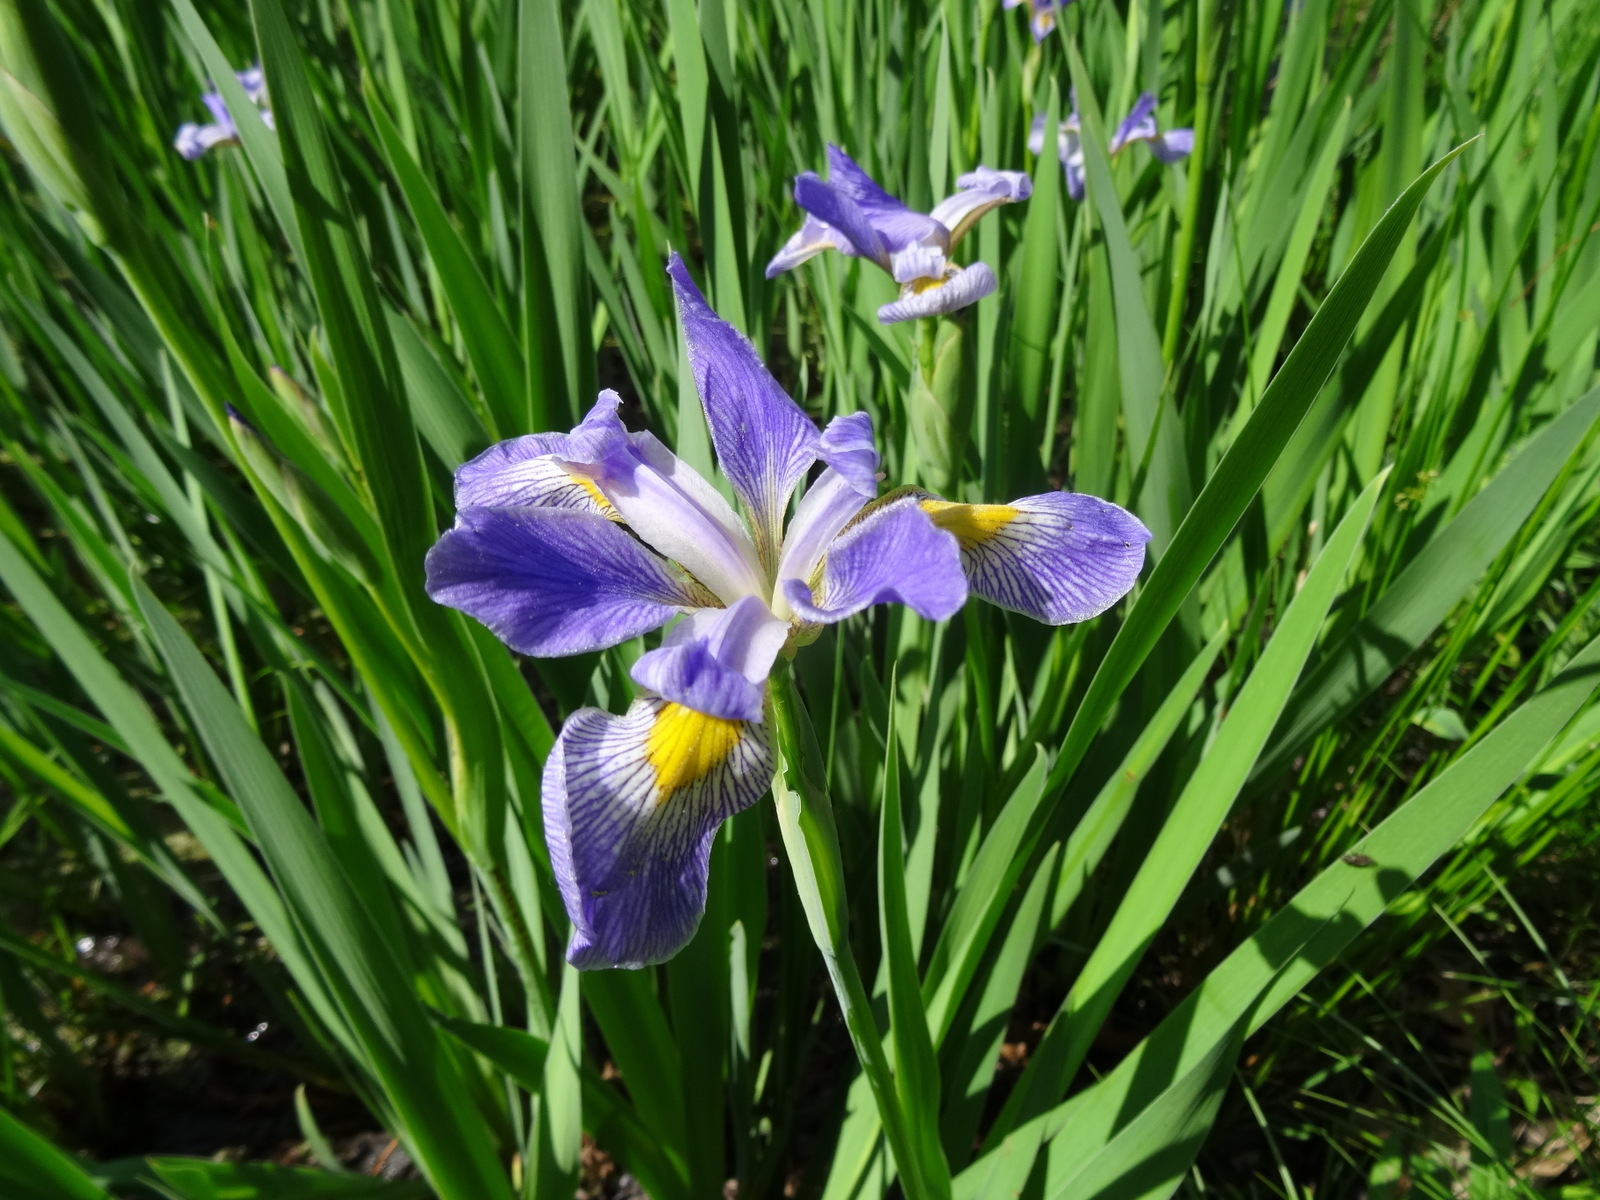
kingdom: Plantae
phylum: Tracheophyta
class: Liliopsida
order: Asparagales
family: Iridaceae
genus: Iris
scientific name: Iris virginica
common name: Southern blue flag
